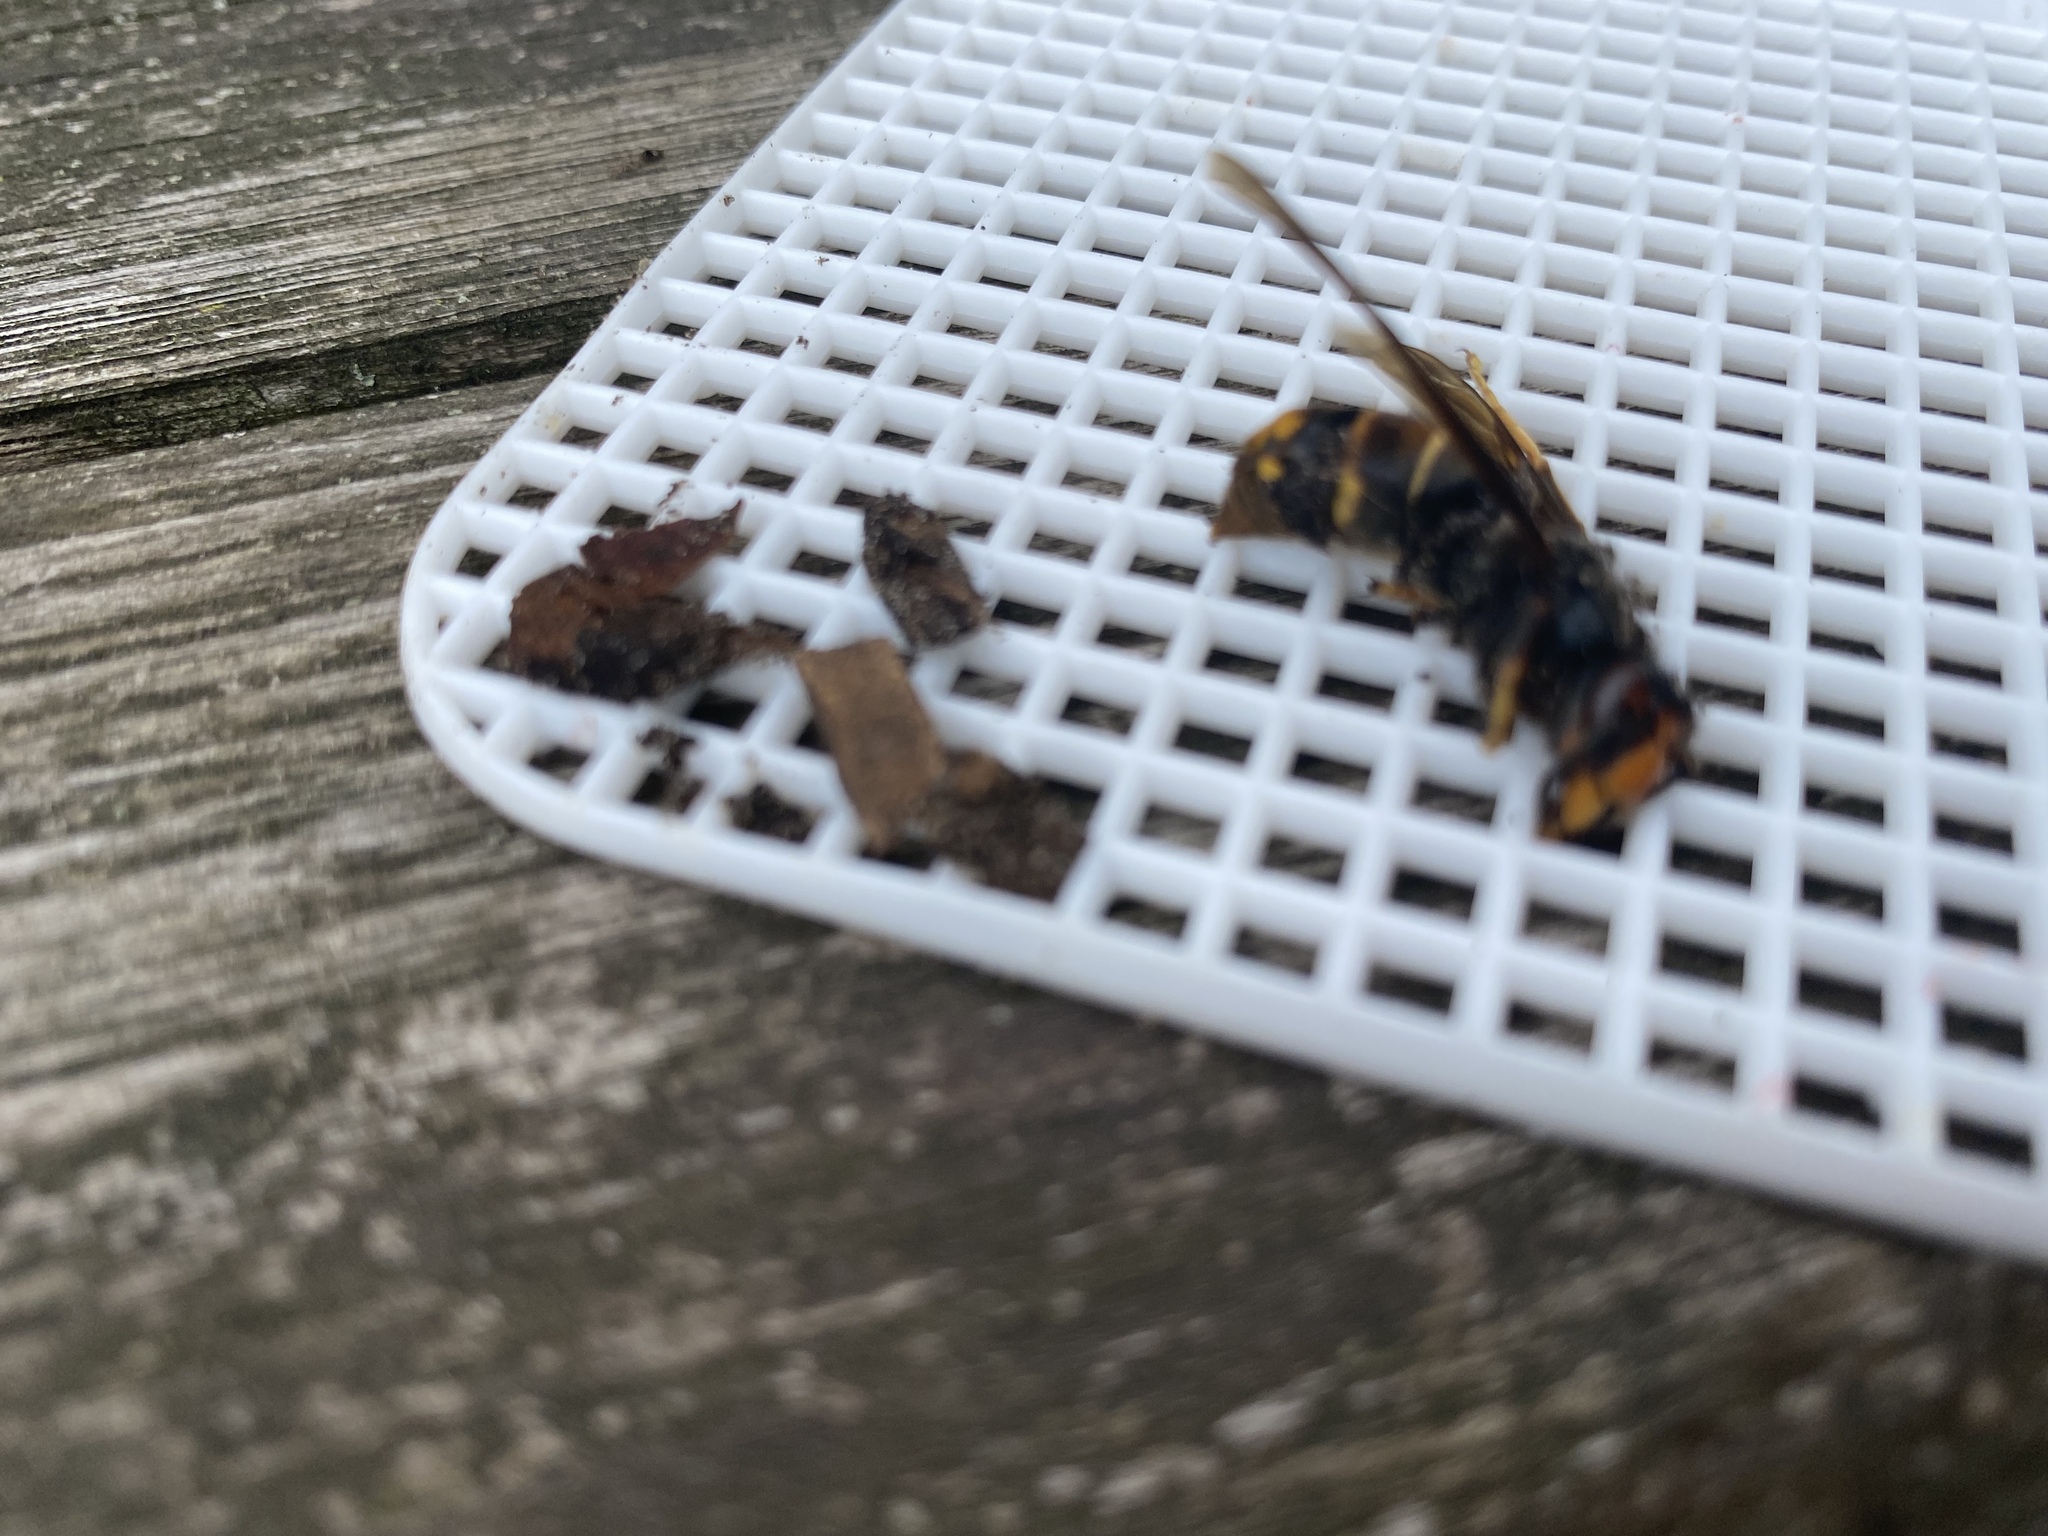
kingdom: Animalia
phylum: Arthropoda
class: Insecta
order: Hymenoptera
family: Vespidae
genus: Vespa
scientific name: Vespa velutina
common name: Asian hornet
